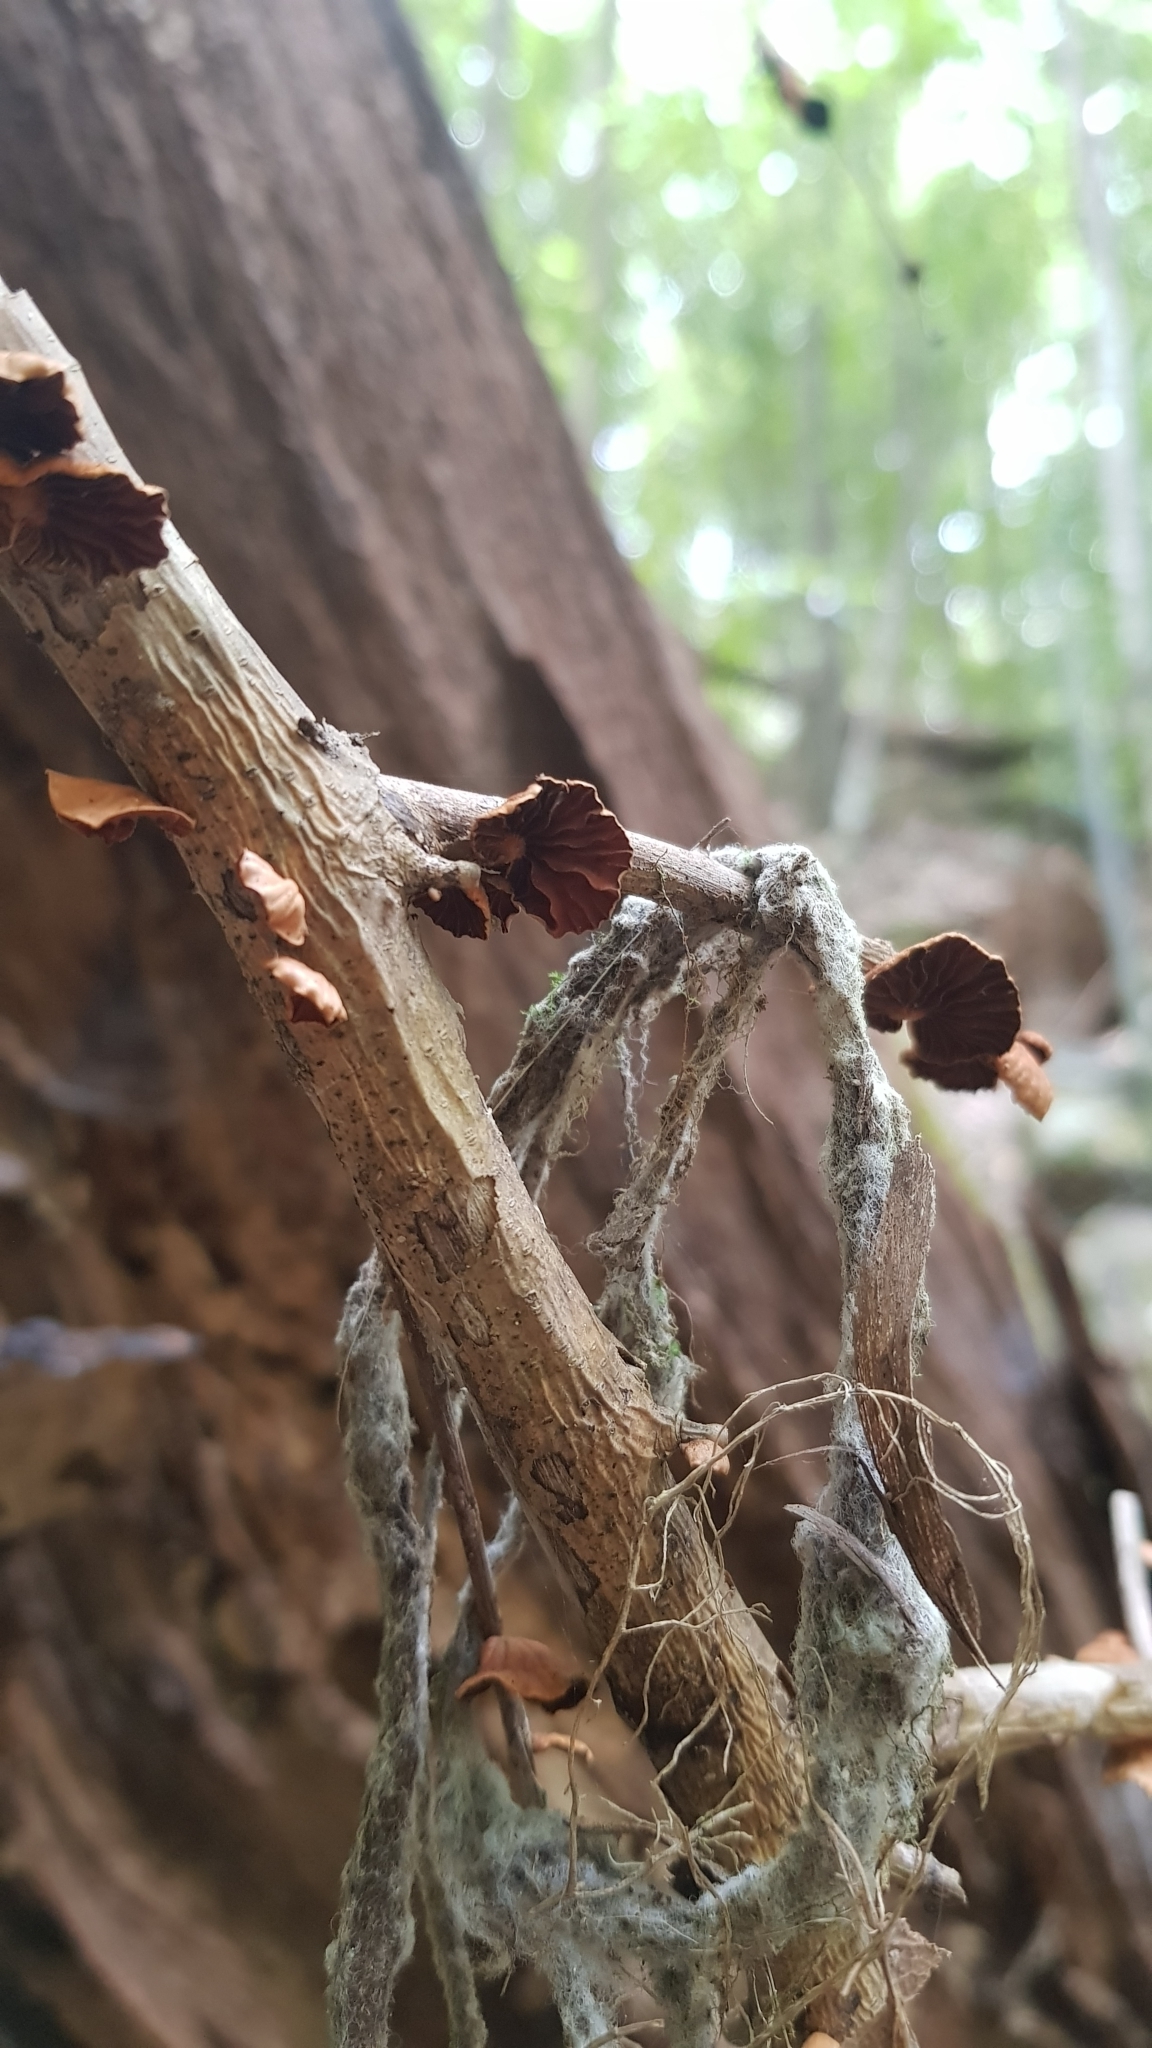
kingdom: Fungi
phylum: Basidiomycota
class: Agaricomycetes
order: Agaricales
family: Omphalotaceae
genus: Anthracophyllum
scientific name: Anthracophyllum archeri
